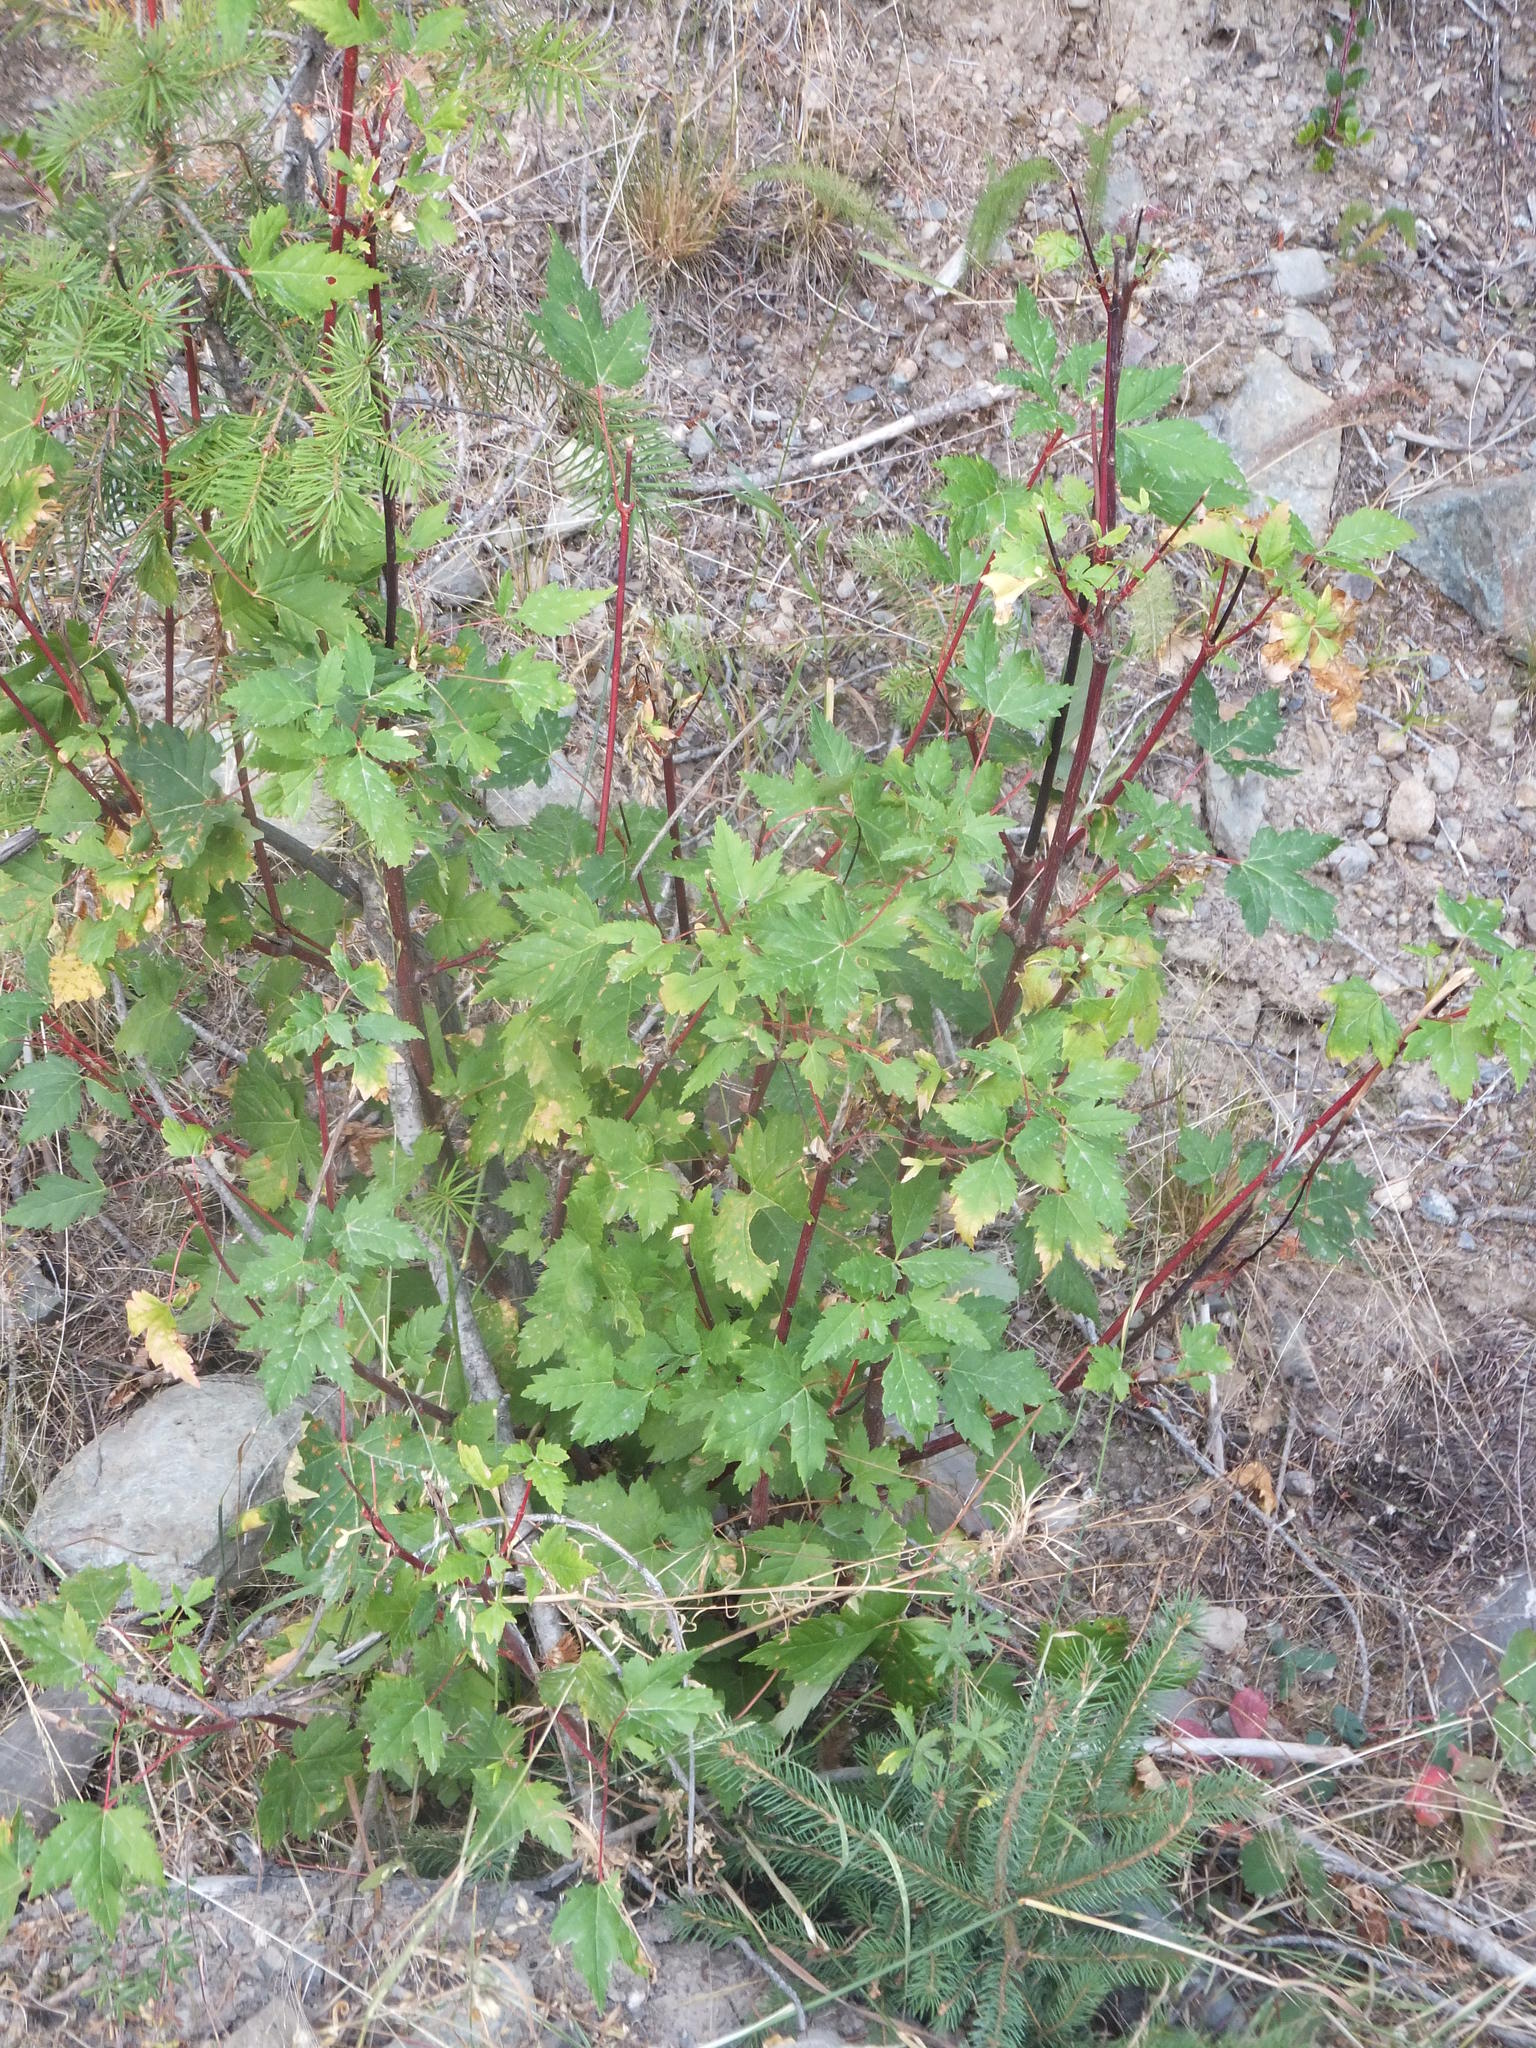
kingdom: Plantae
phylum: Tracheophyta
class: Magnoliopsida
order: Sapindales
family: Sapindaceae
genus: Acer
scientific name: Acer glabrum
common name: Rocky mountain maple
